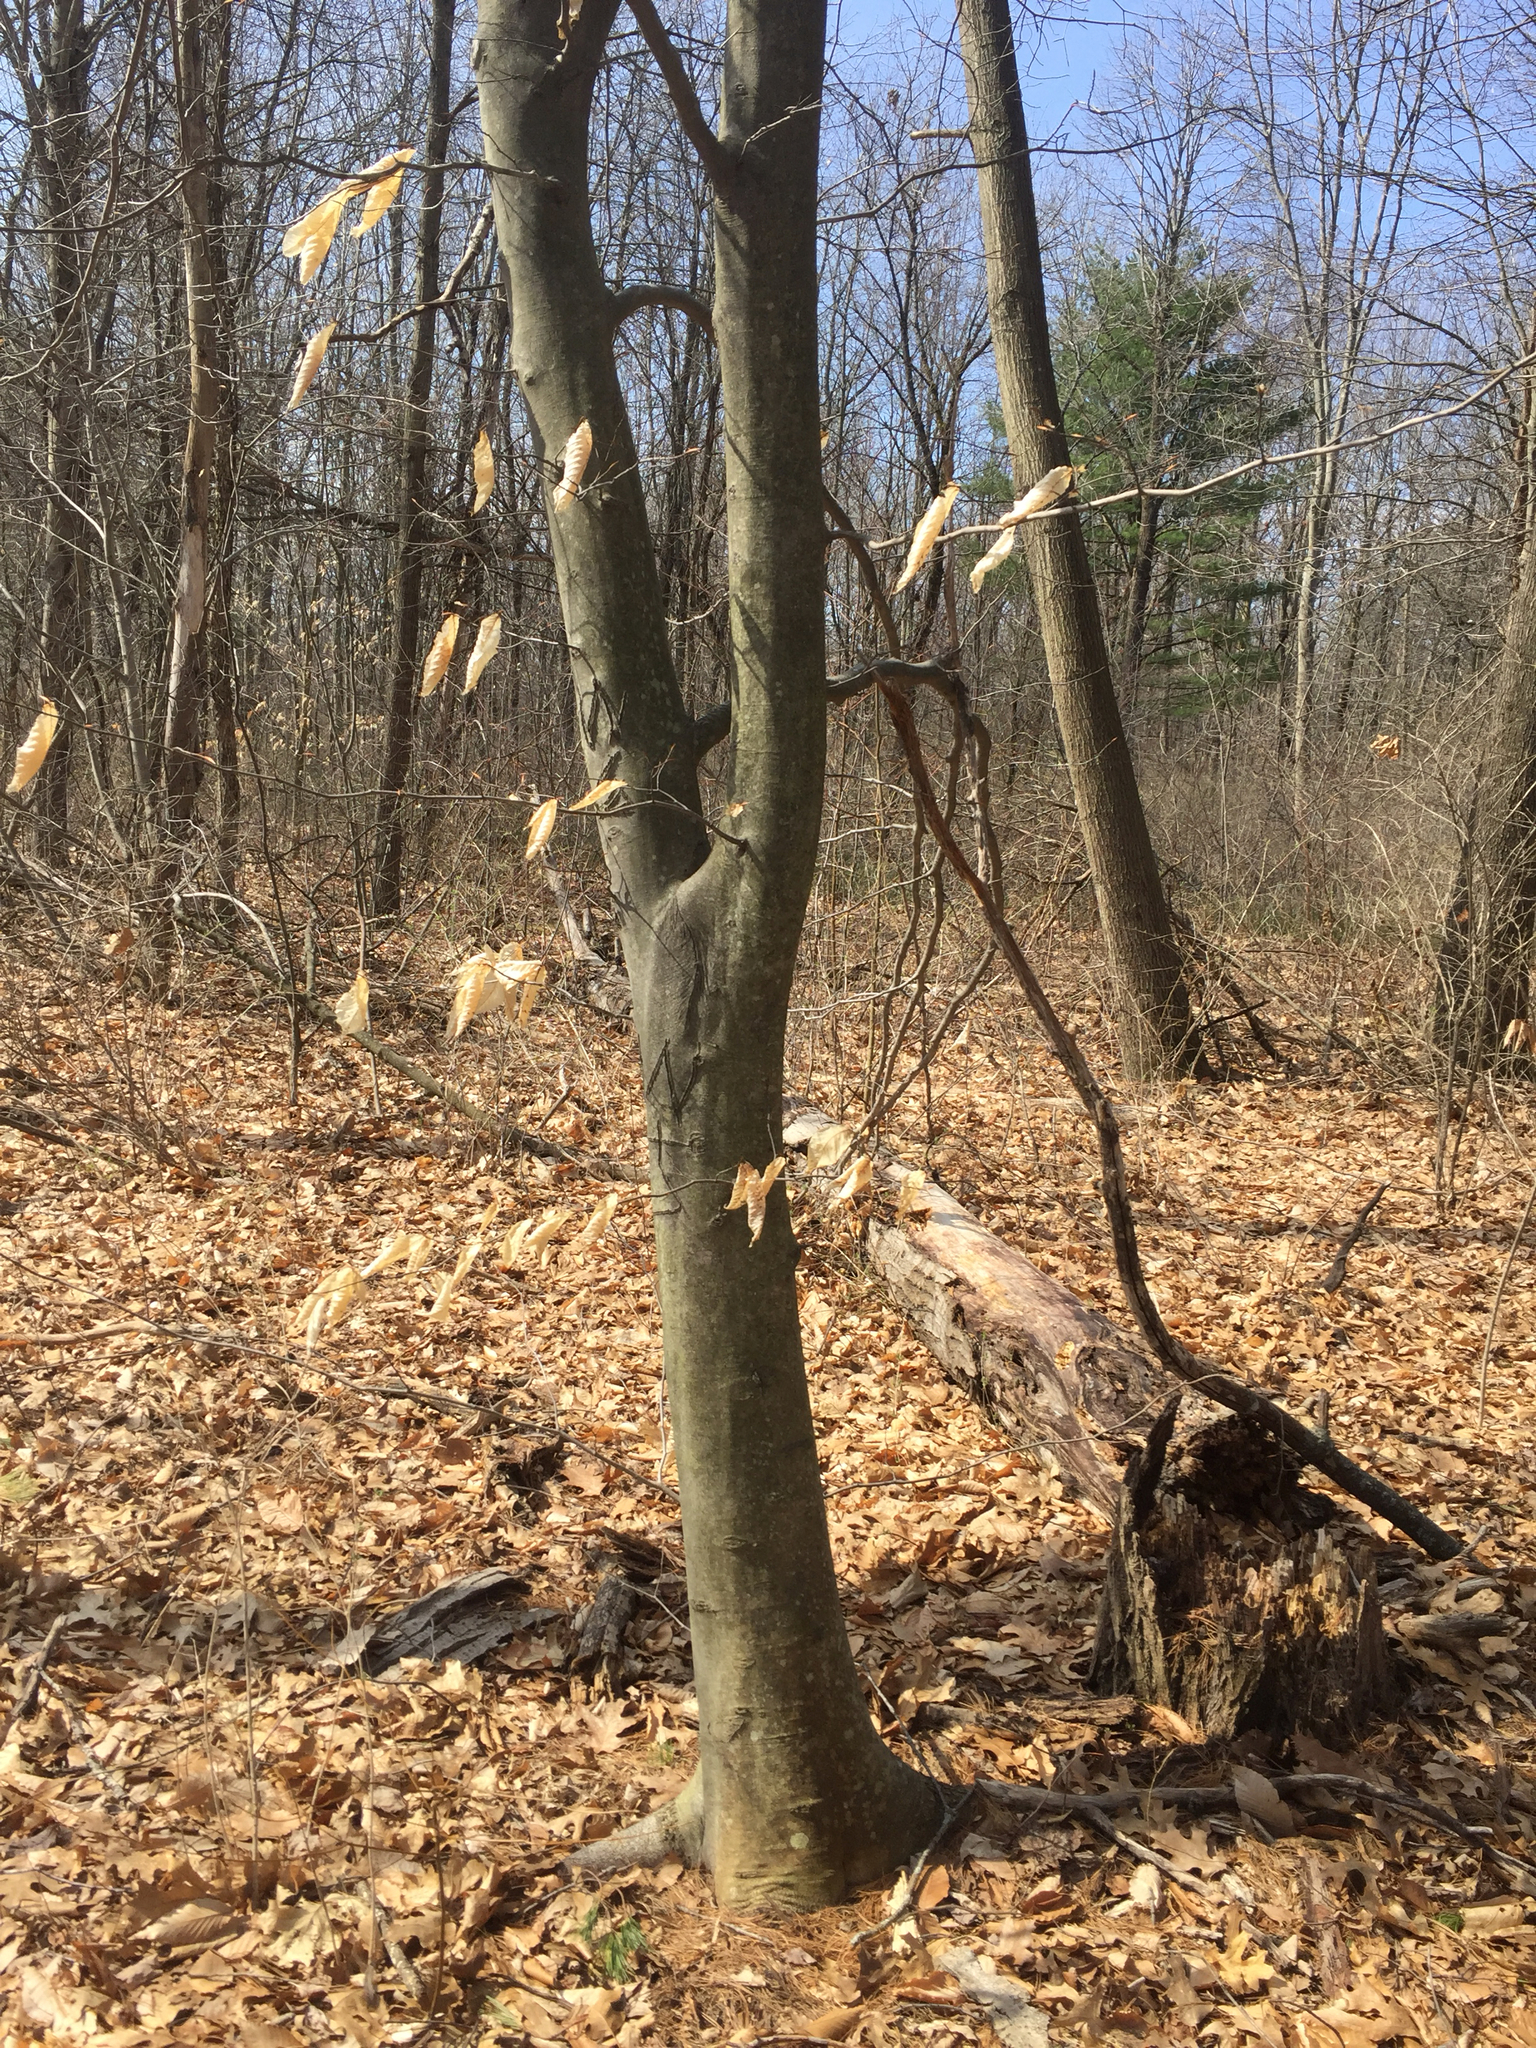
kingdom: Plantae
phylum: Tracheophyta
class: Magnoliopsida
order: Fagales
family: Fagaceae
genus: Fagus
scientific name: Fagus grandifolia
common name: American beech
